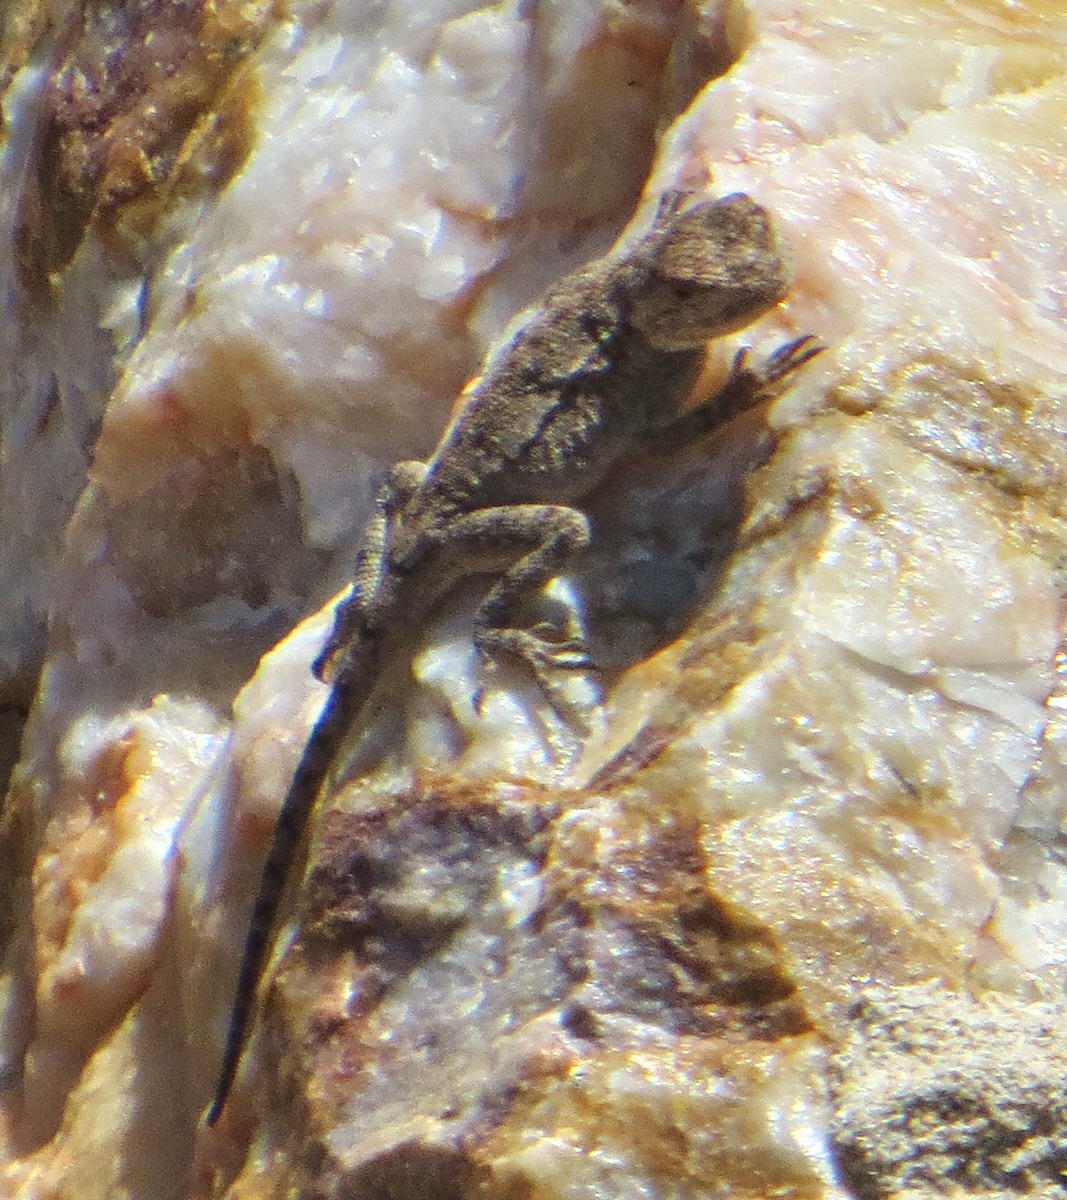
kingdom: Animalia
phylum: Chordata
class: Squamata
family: Agamidae
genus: Agama
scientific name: Agama atra
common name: Southern african rock agama
